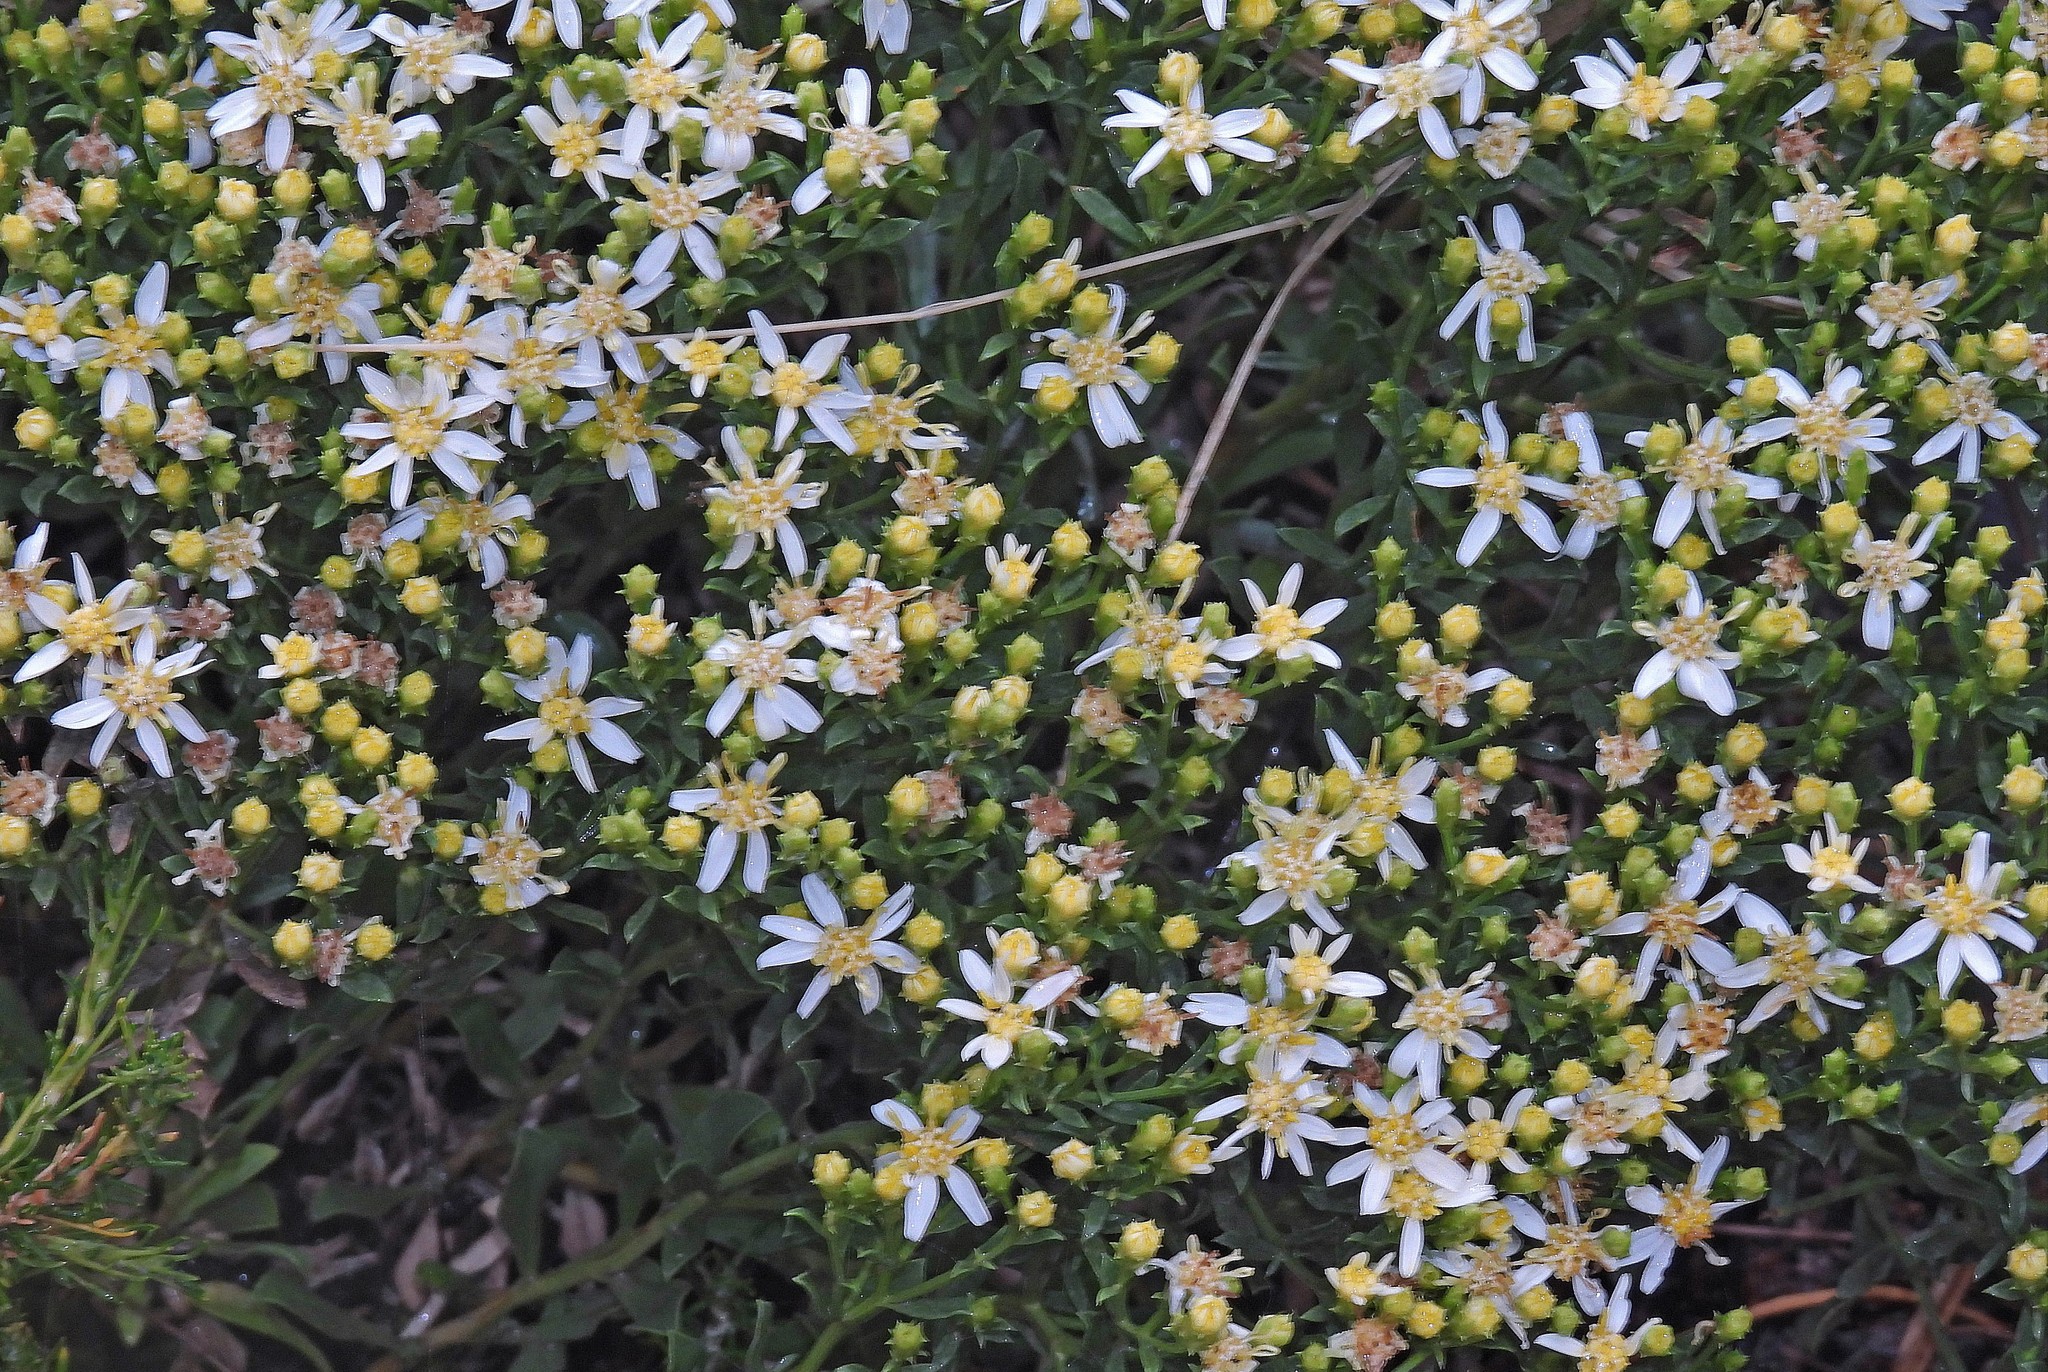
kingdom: Plantae
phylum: Tracheophyta
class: Magnoliopsida
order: Asterales
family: Asteraceae
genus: Gutierrezia
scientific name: Gutierrezia solbrigii
